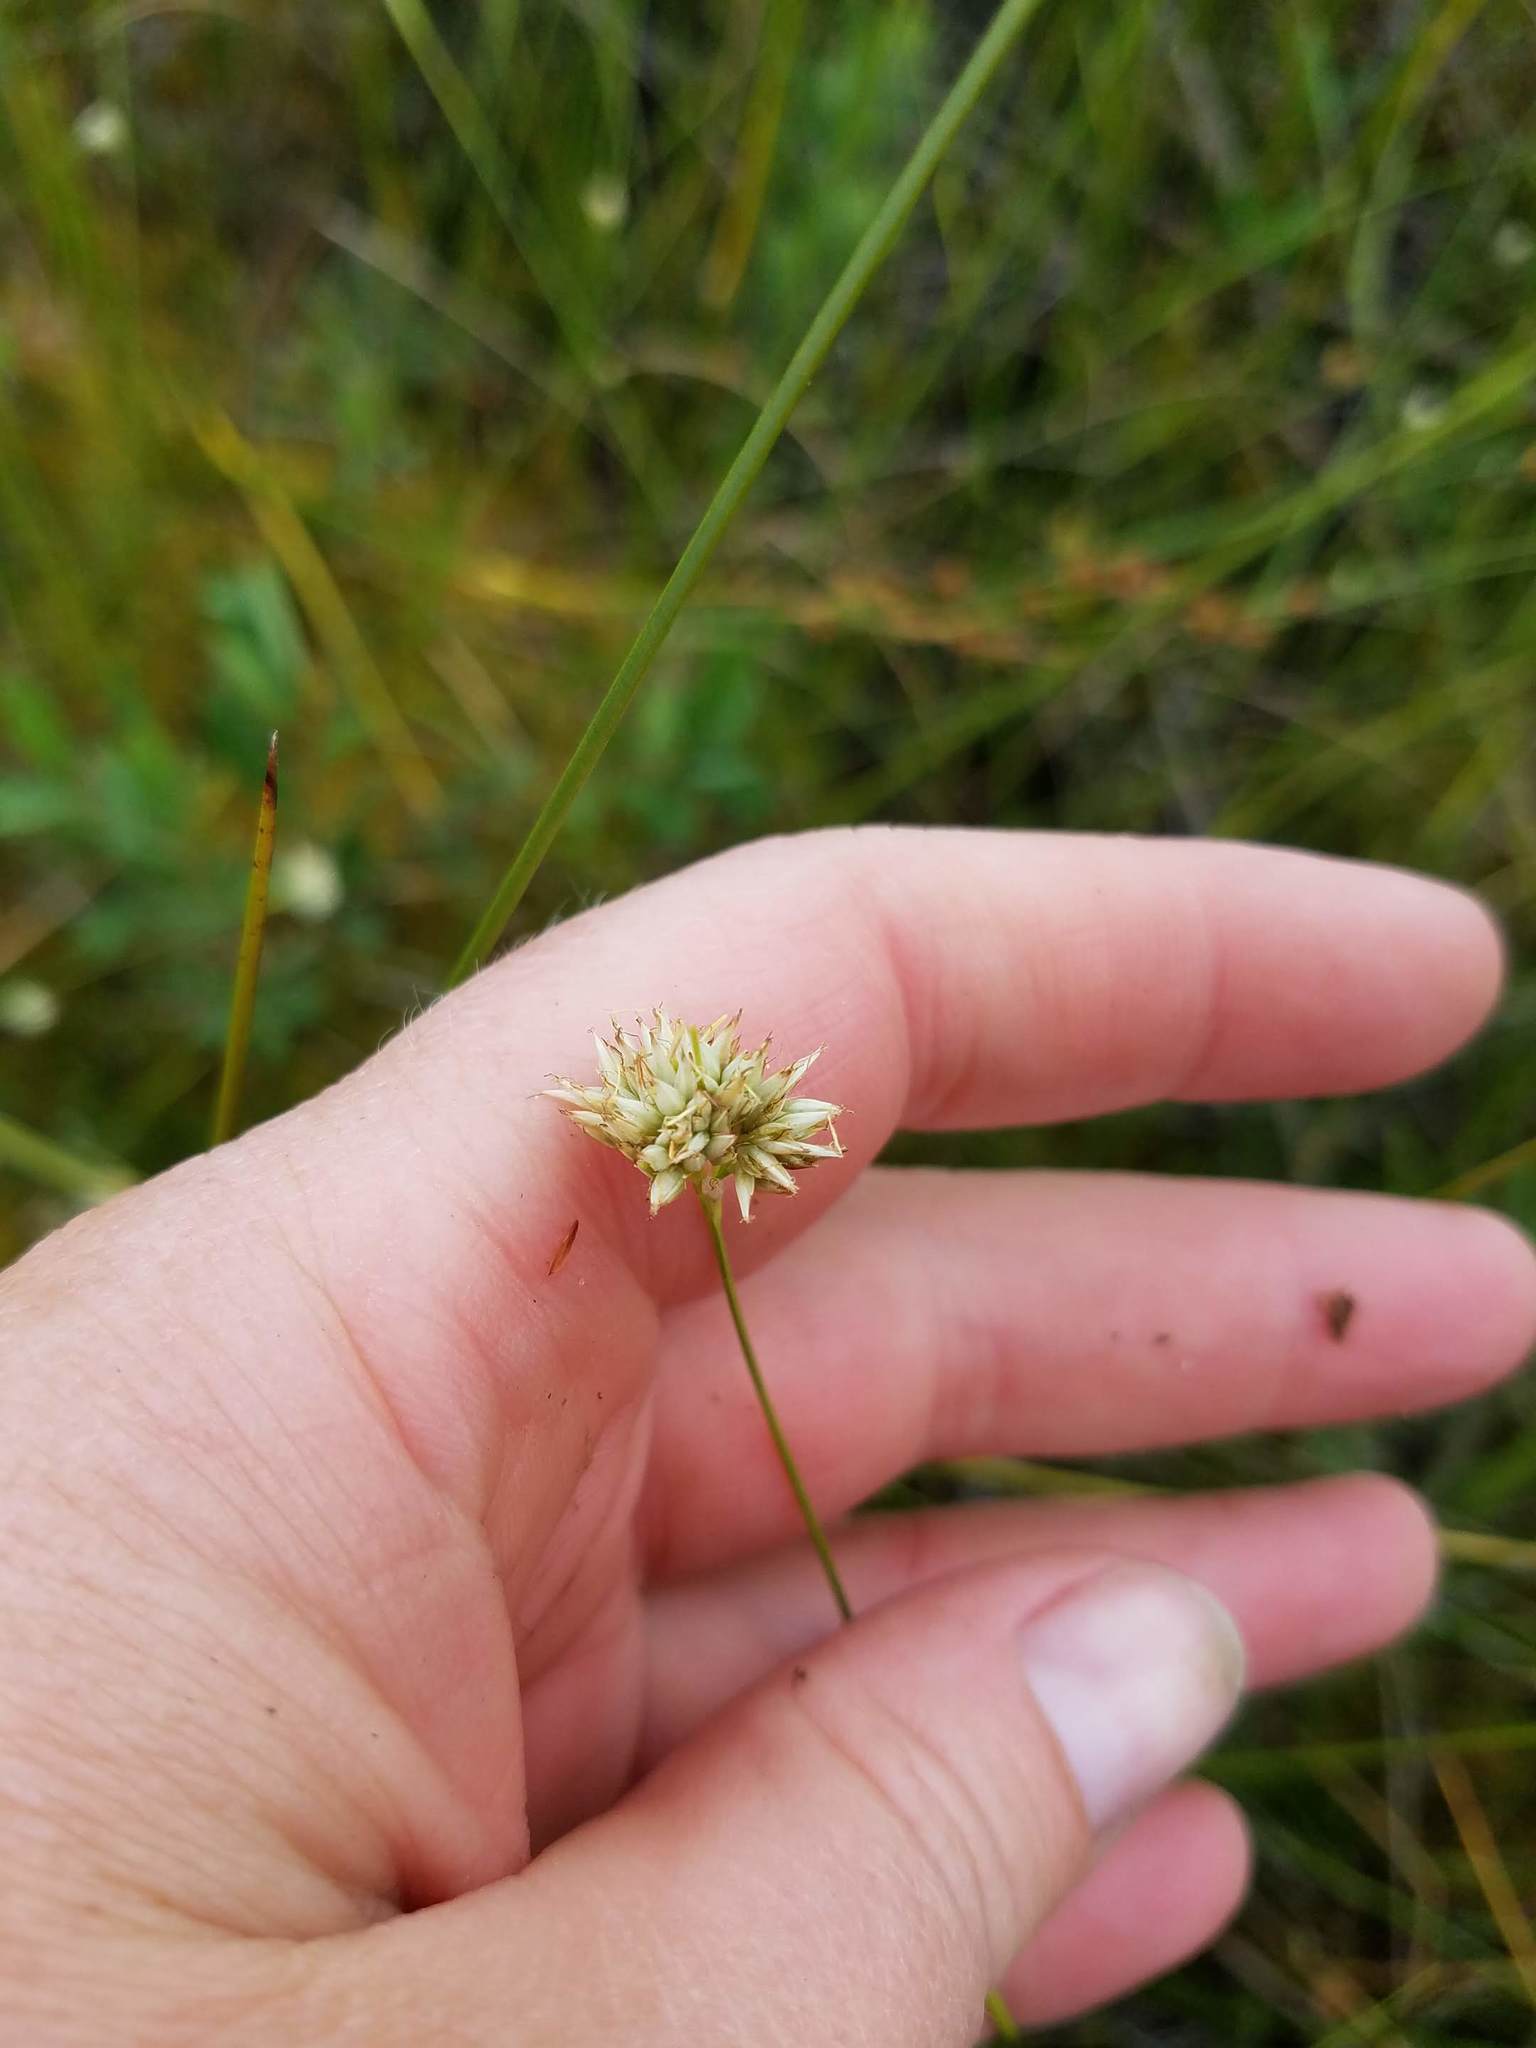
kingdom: Plantae
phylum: Tracheophyta
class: Liliopsida
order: Poales
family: Cyperaceae
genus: Rhynchospora
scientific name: Rhynchospora alba
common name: White beak-sedge
